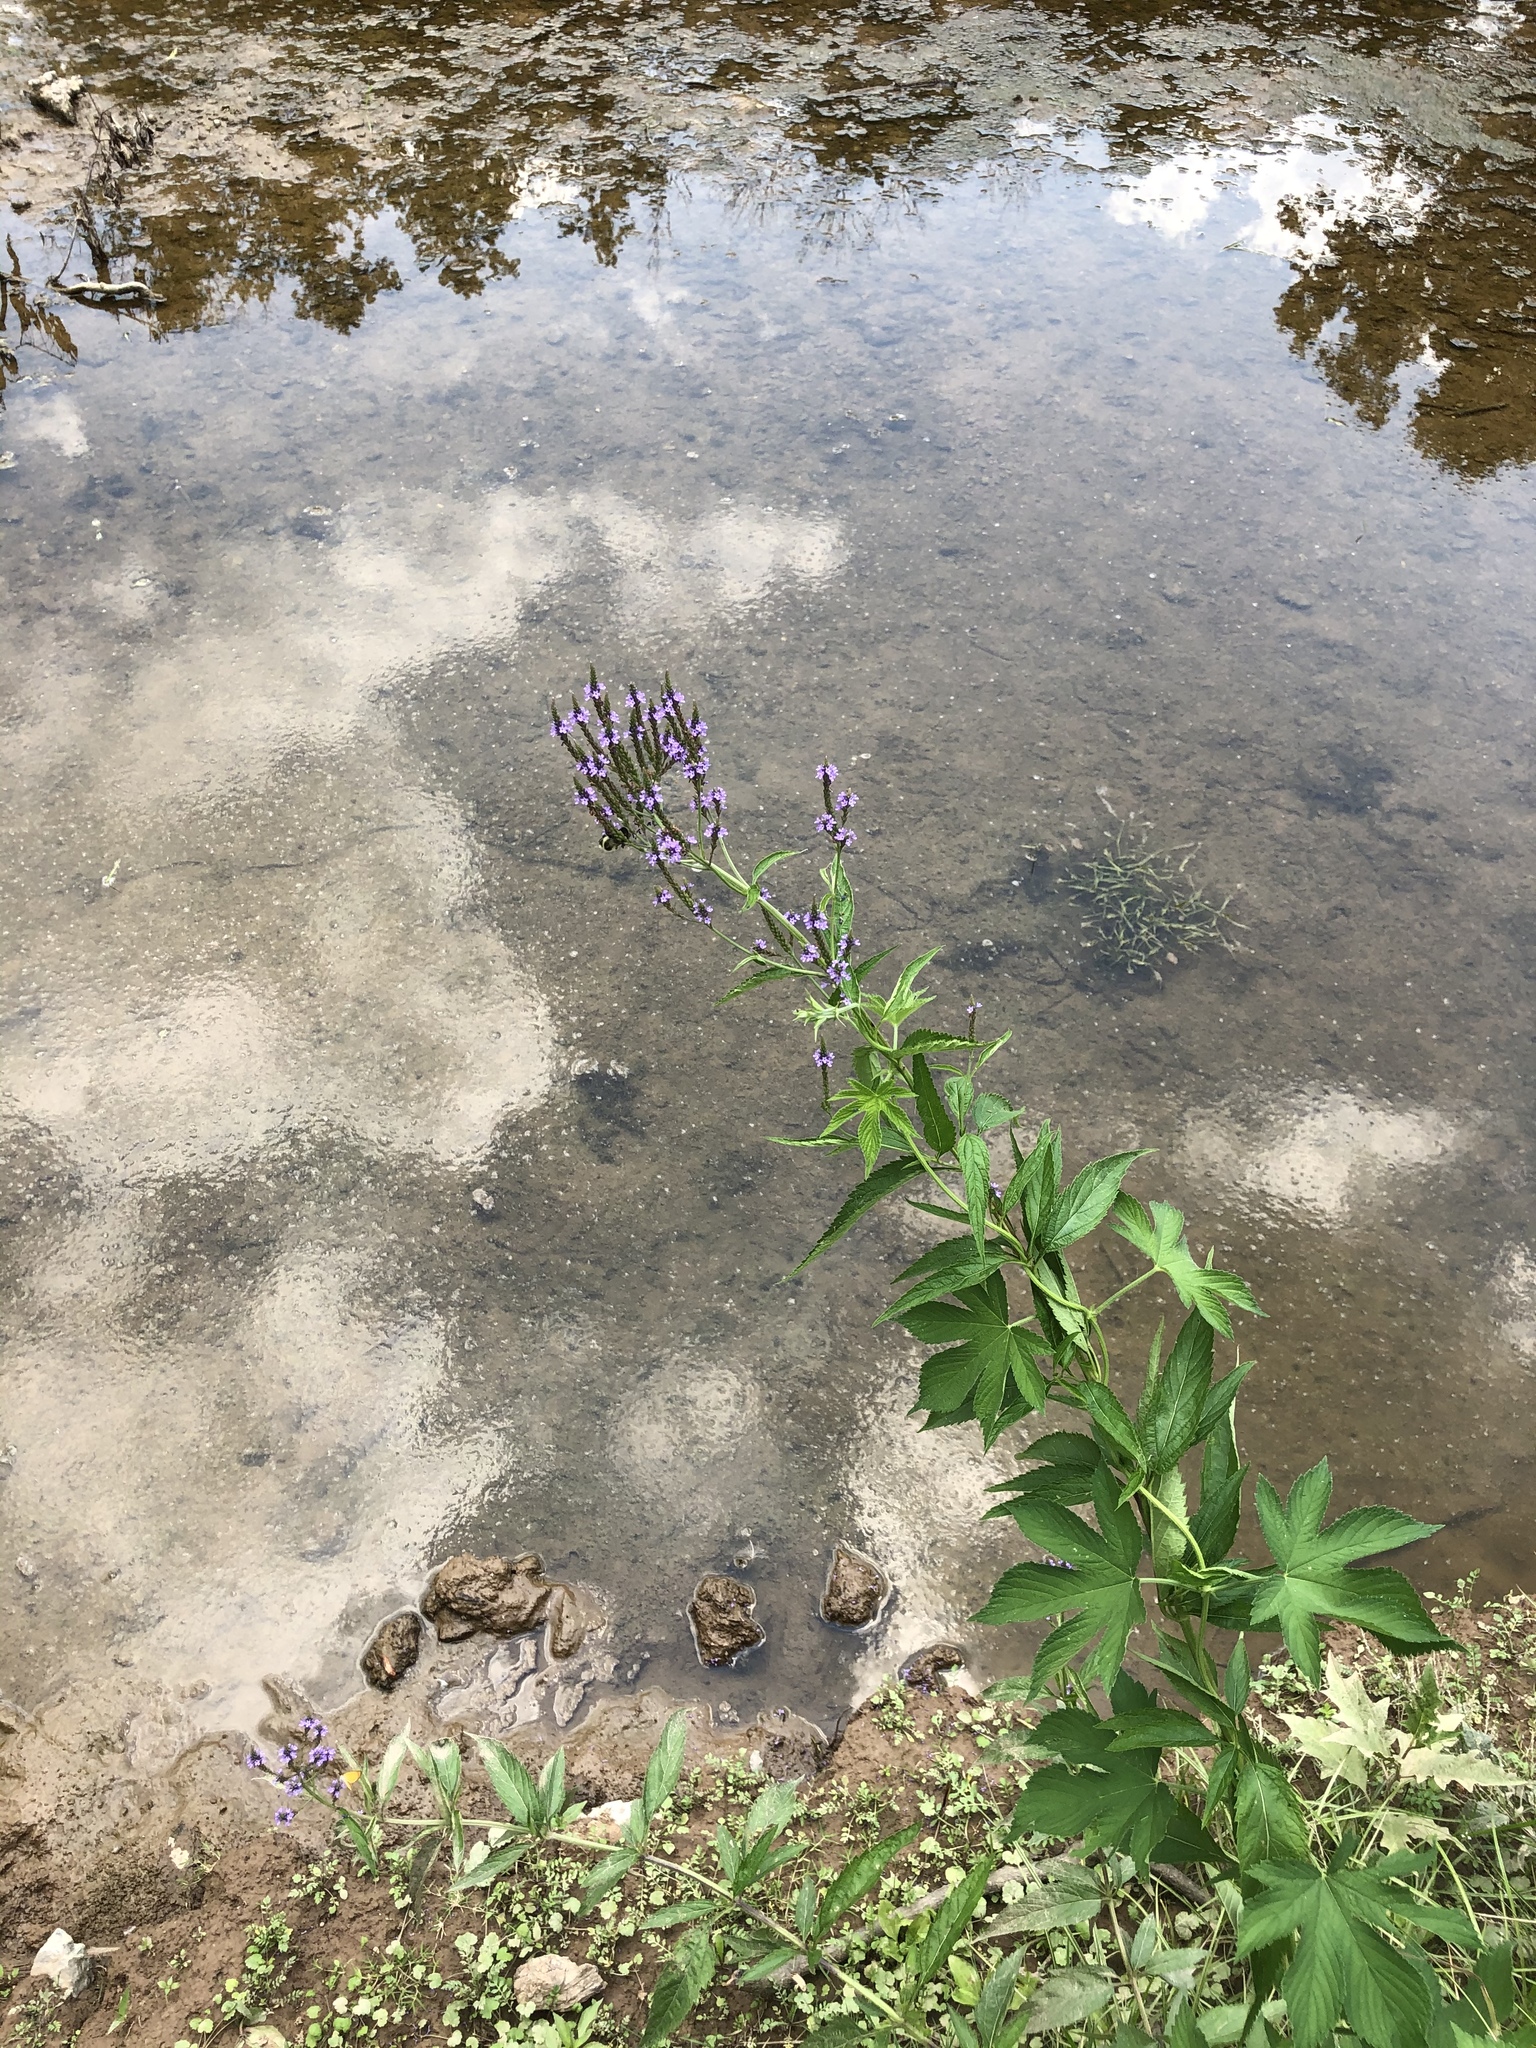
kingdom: Plantae
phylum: Tracheophyta
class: Magnoliopsida
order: Lamiales
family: Verbenaceae
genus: Verbena
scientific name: Verbena hastata
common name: American blue vervain
